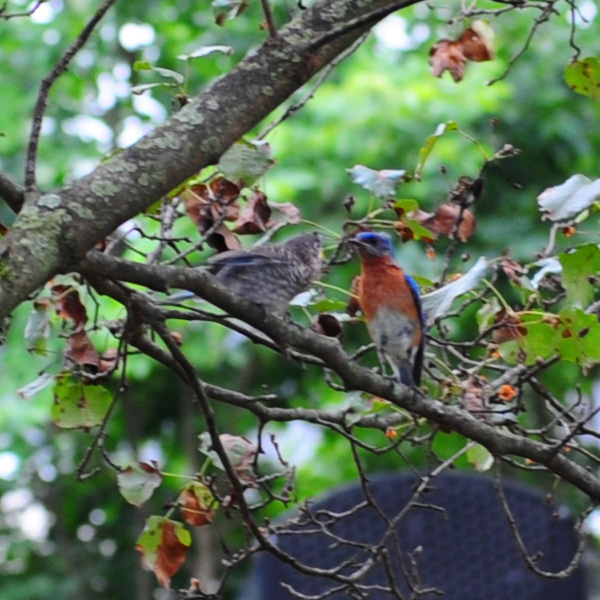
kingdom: Animalia
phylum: Chordata
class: Aves
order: Passeriformes
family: Turdidae
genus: Sialia
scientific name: Sialia sialis
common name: Eastern bluebird
